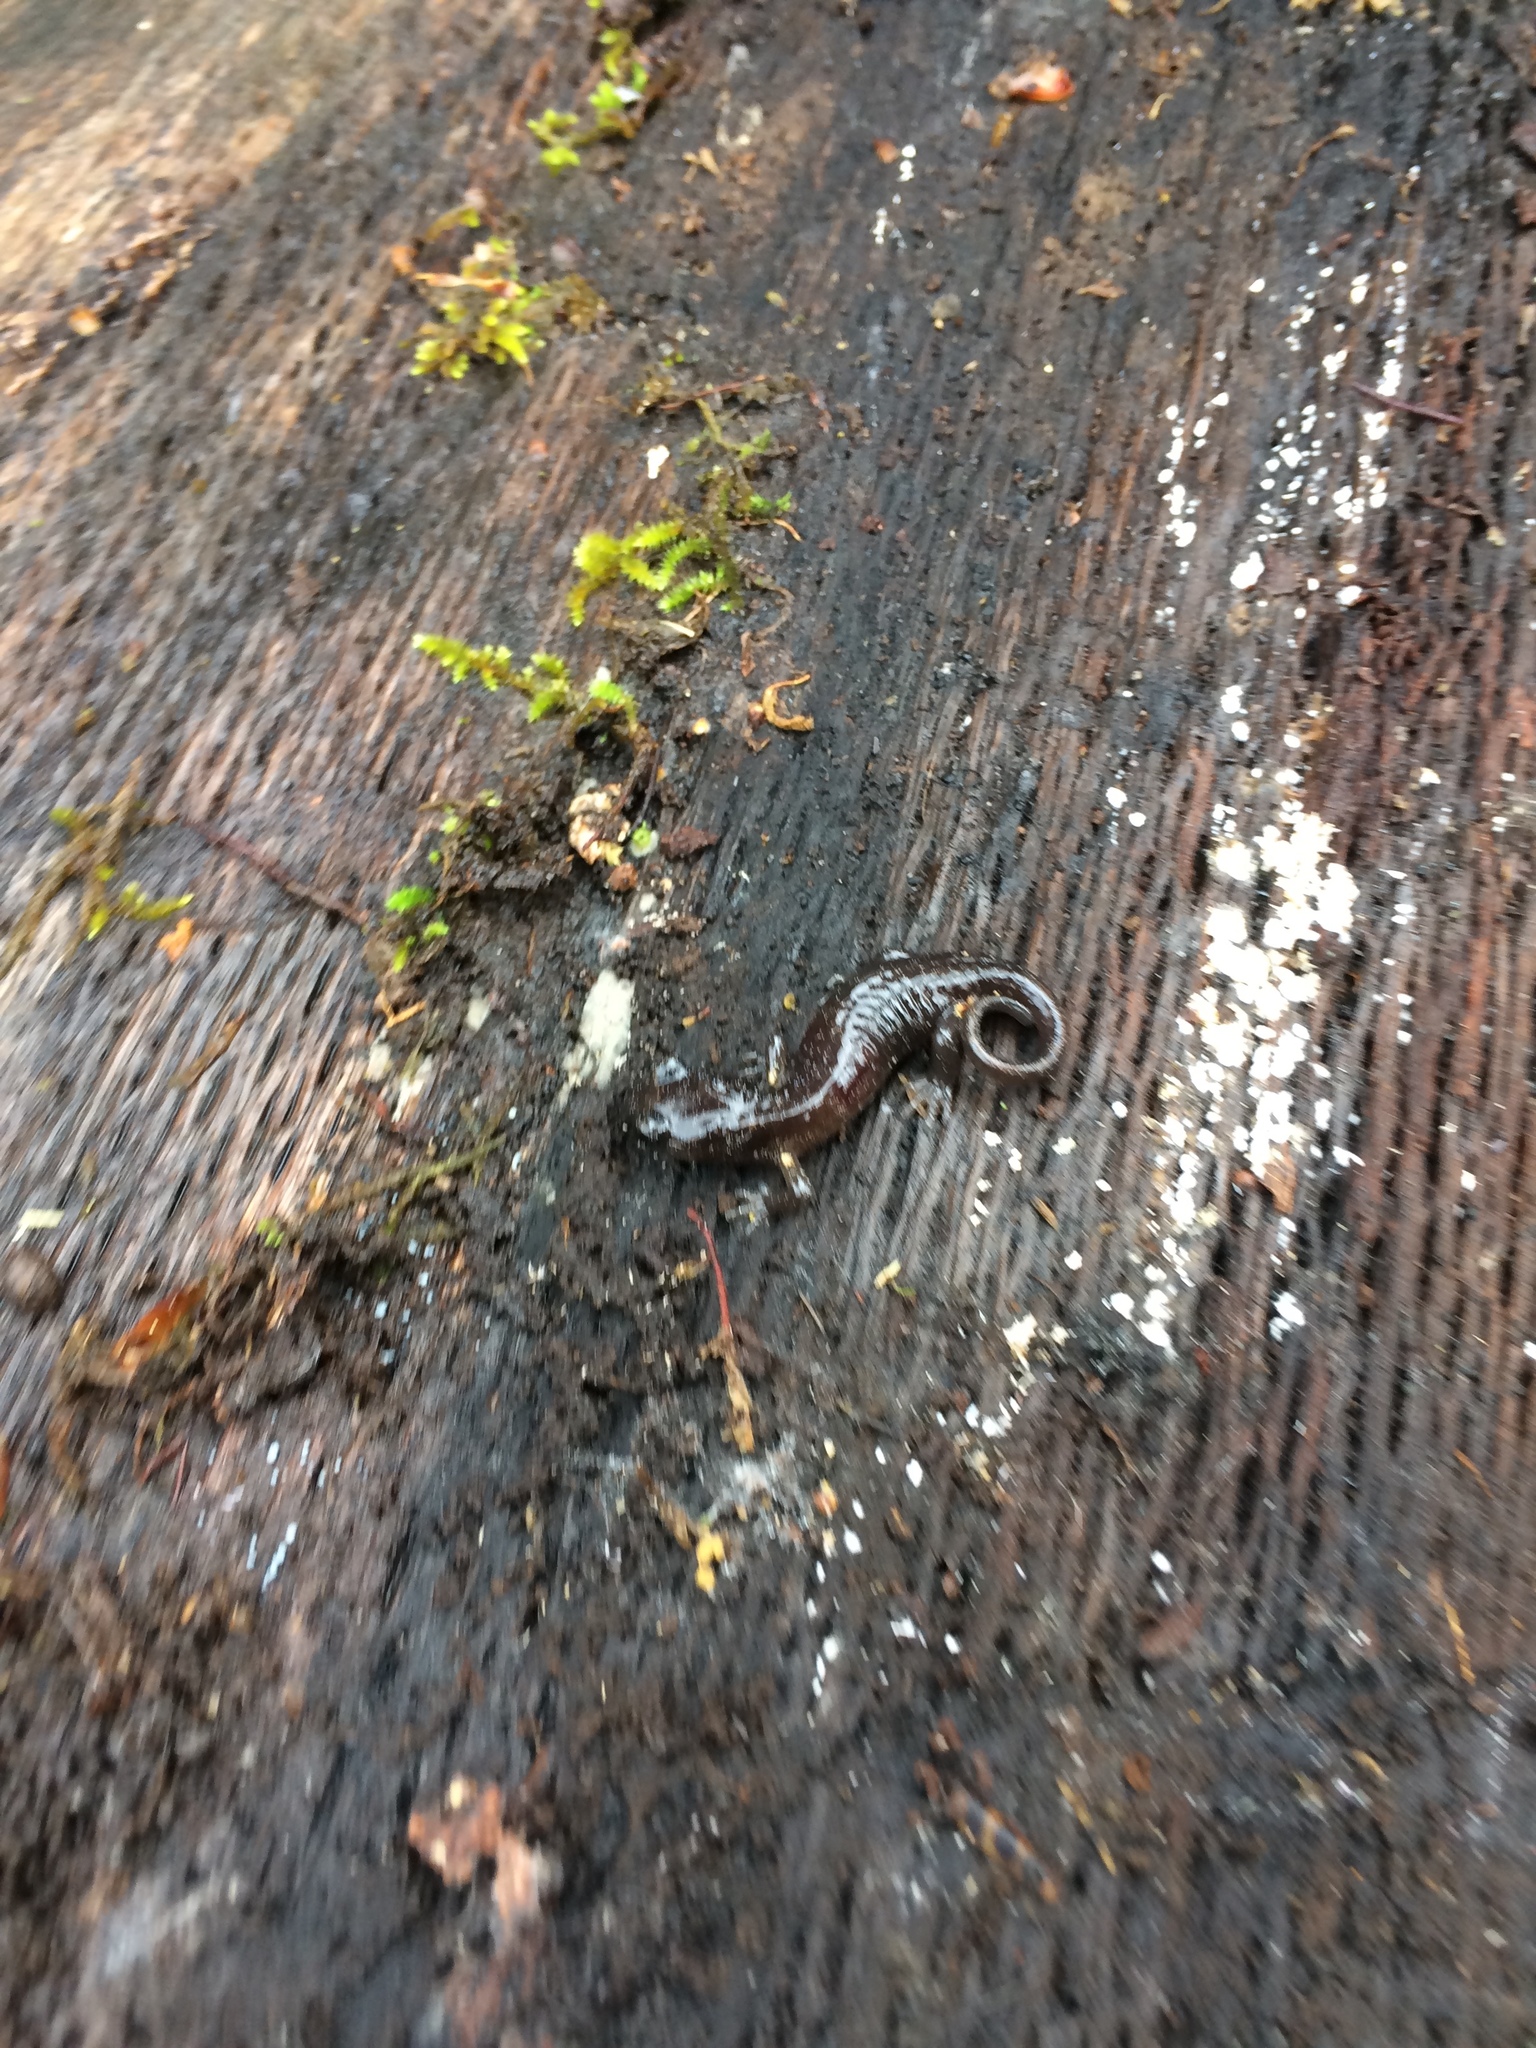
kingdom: Animalia
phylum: Chordata
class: Amphibia
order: Caudata
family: Plethodontidae
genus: Aneides
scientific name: Aneides lugubris
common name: Arboreal salamander
